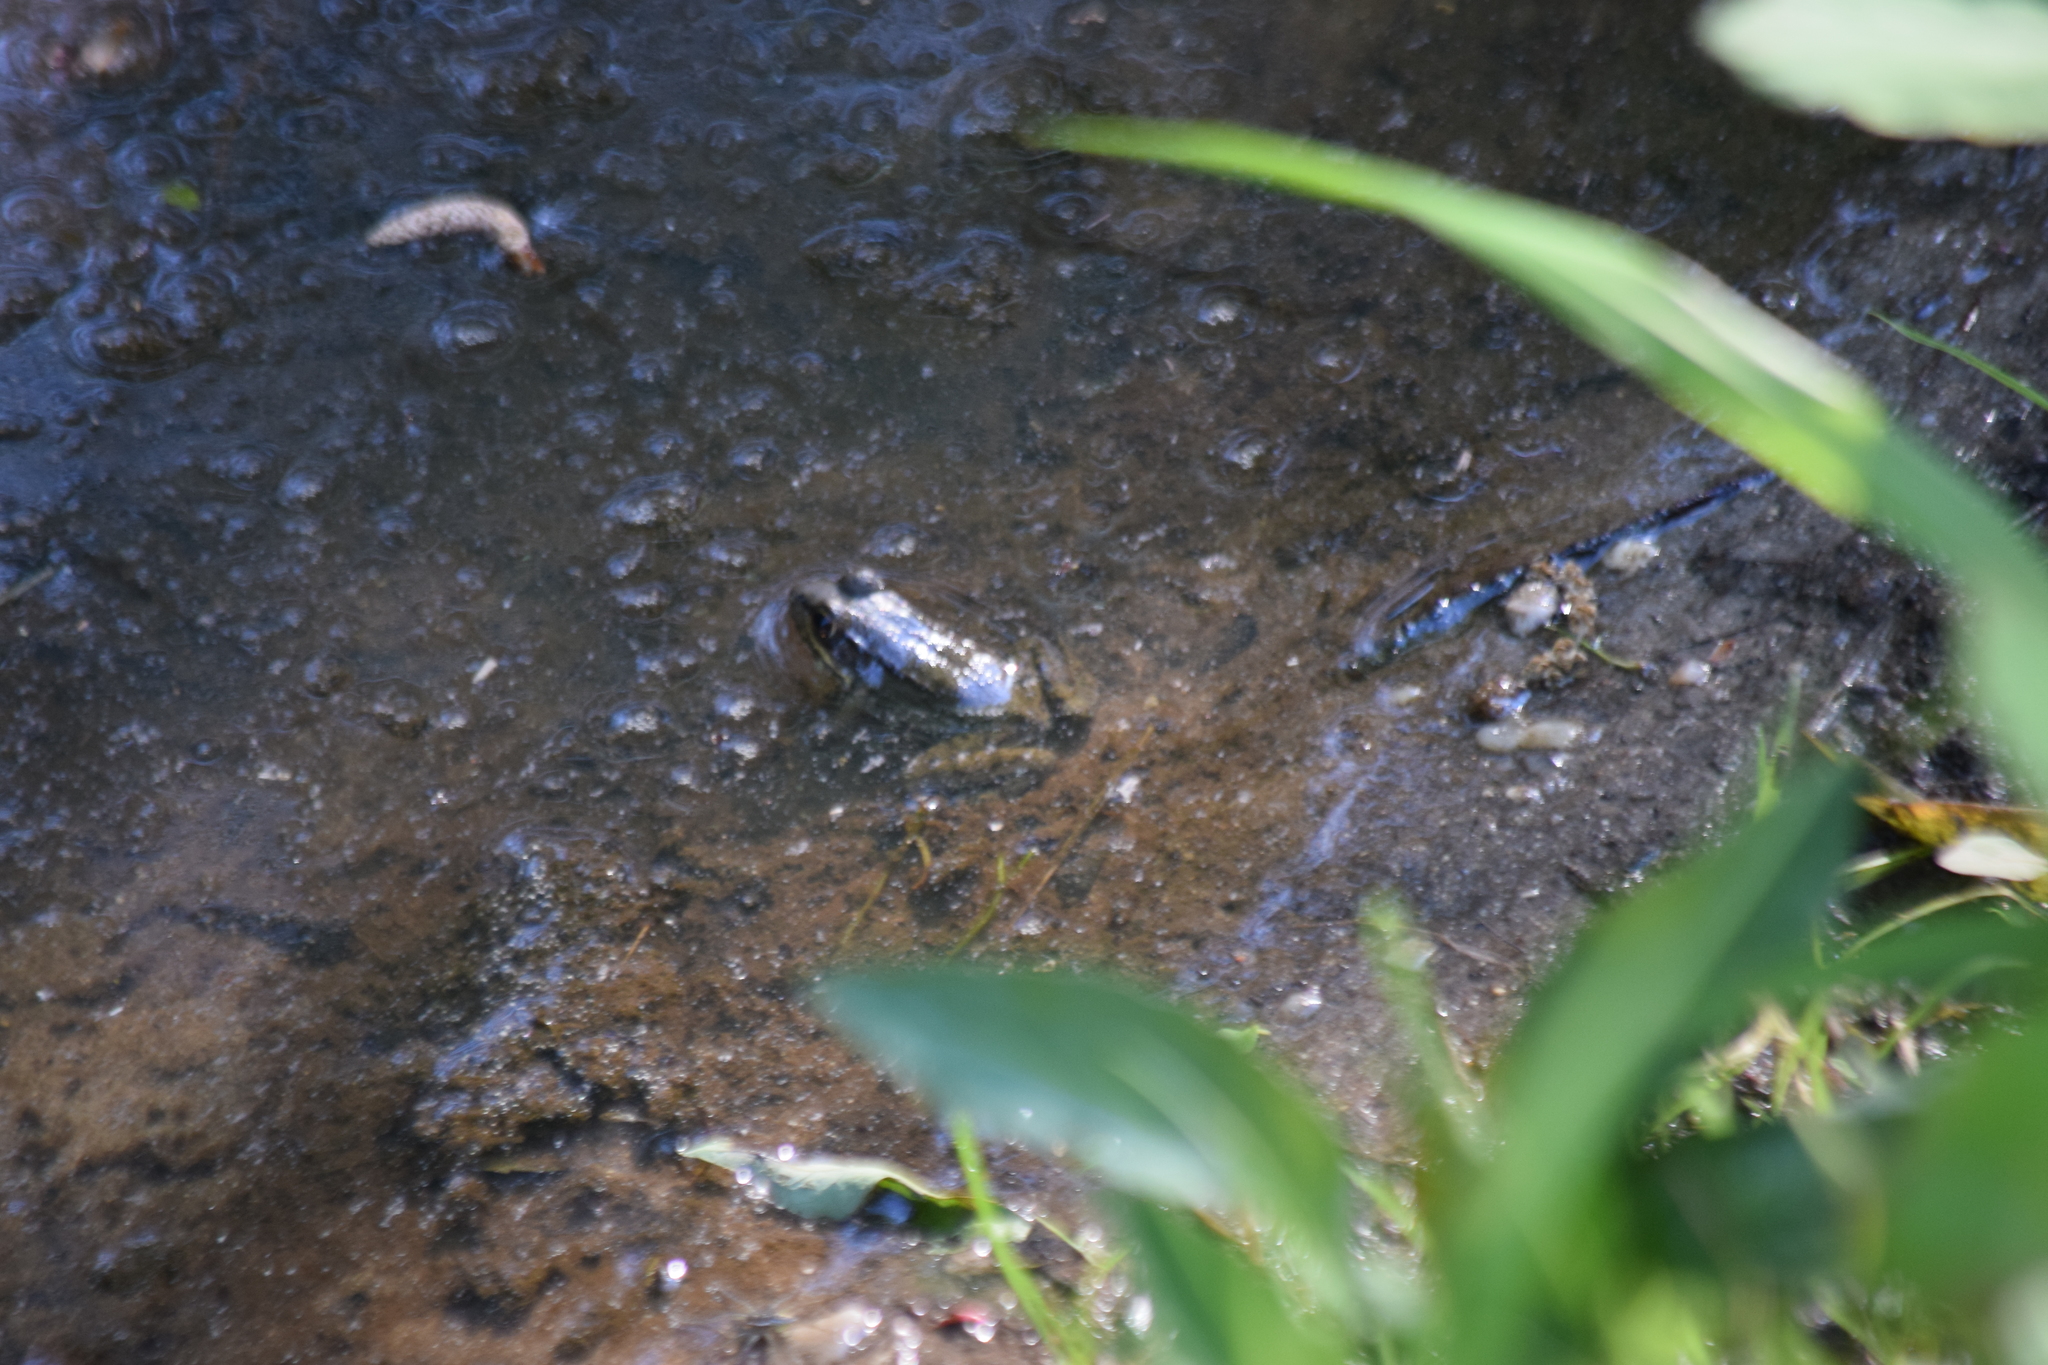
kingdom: Animalia
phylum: Chordata
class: Amphibia
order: Anura
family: Ranidae
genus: Lithobates
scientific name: Lithobates clamitans
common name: Green frog
